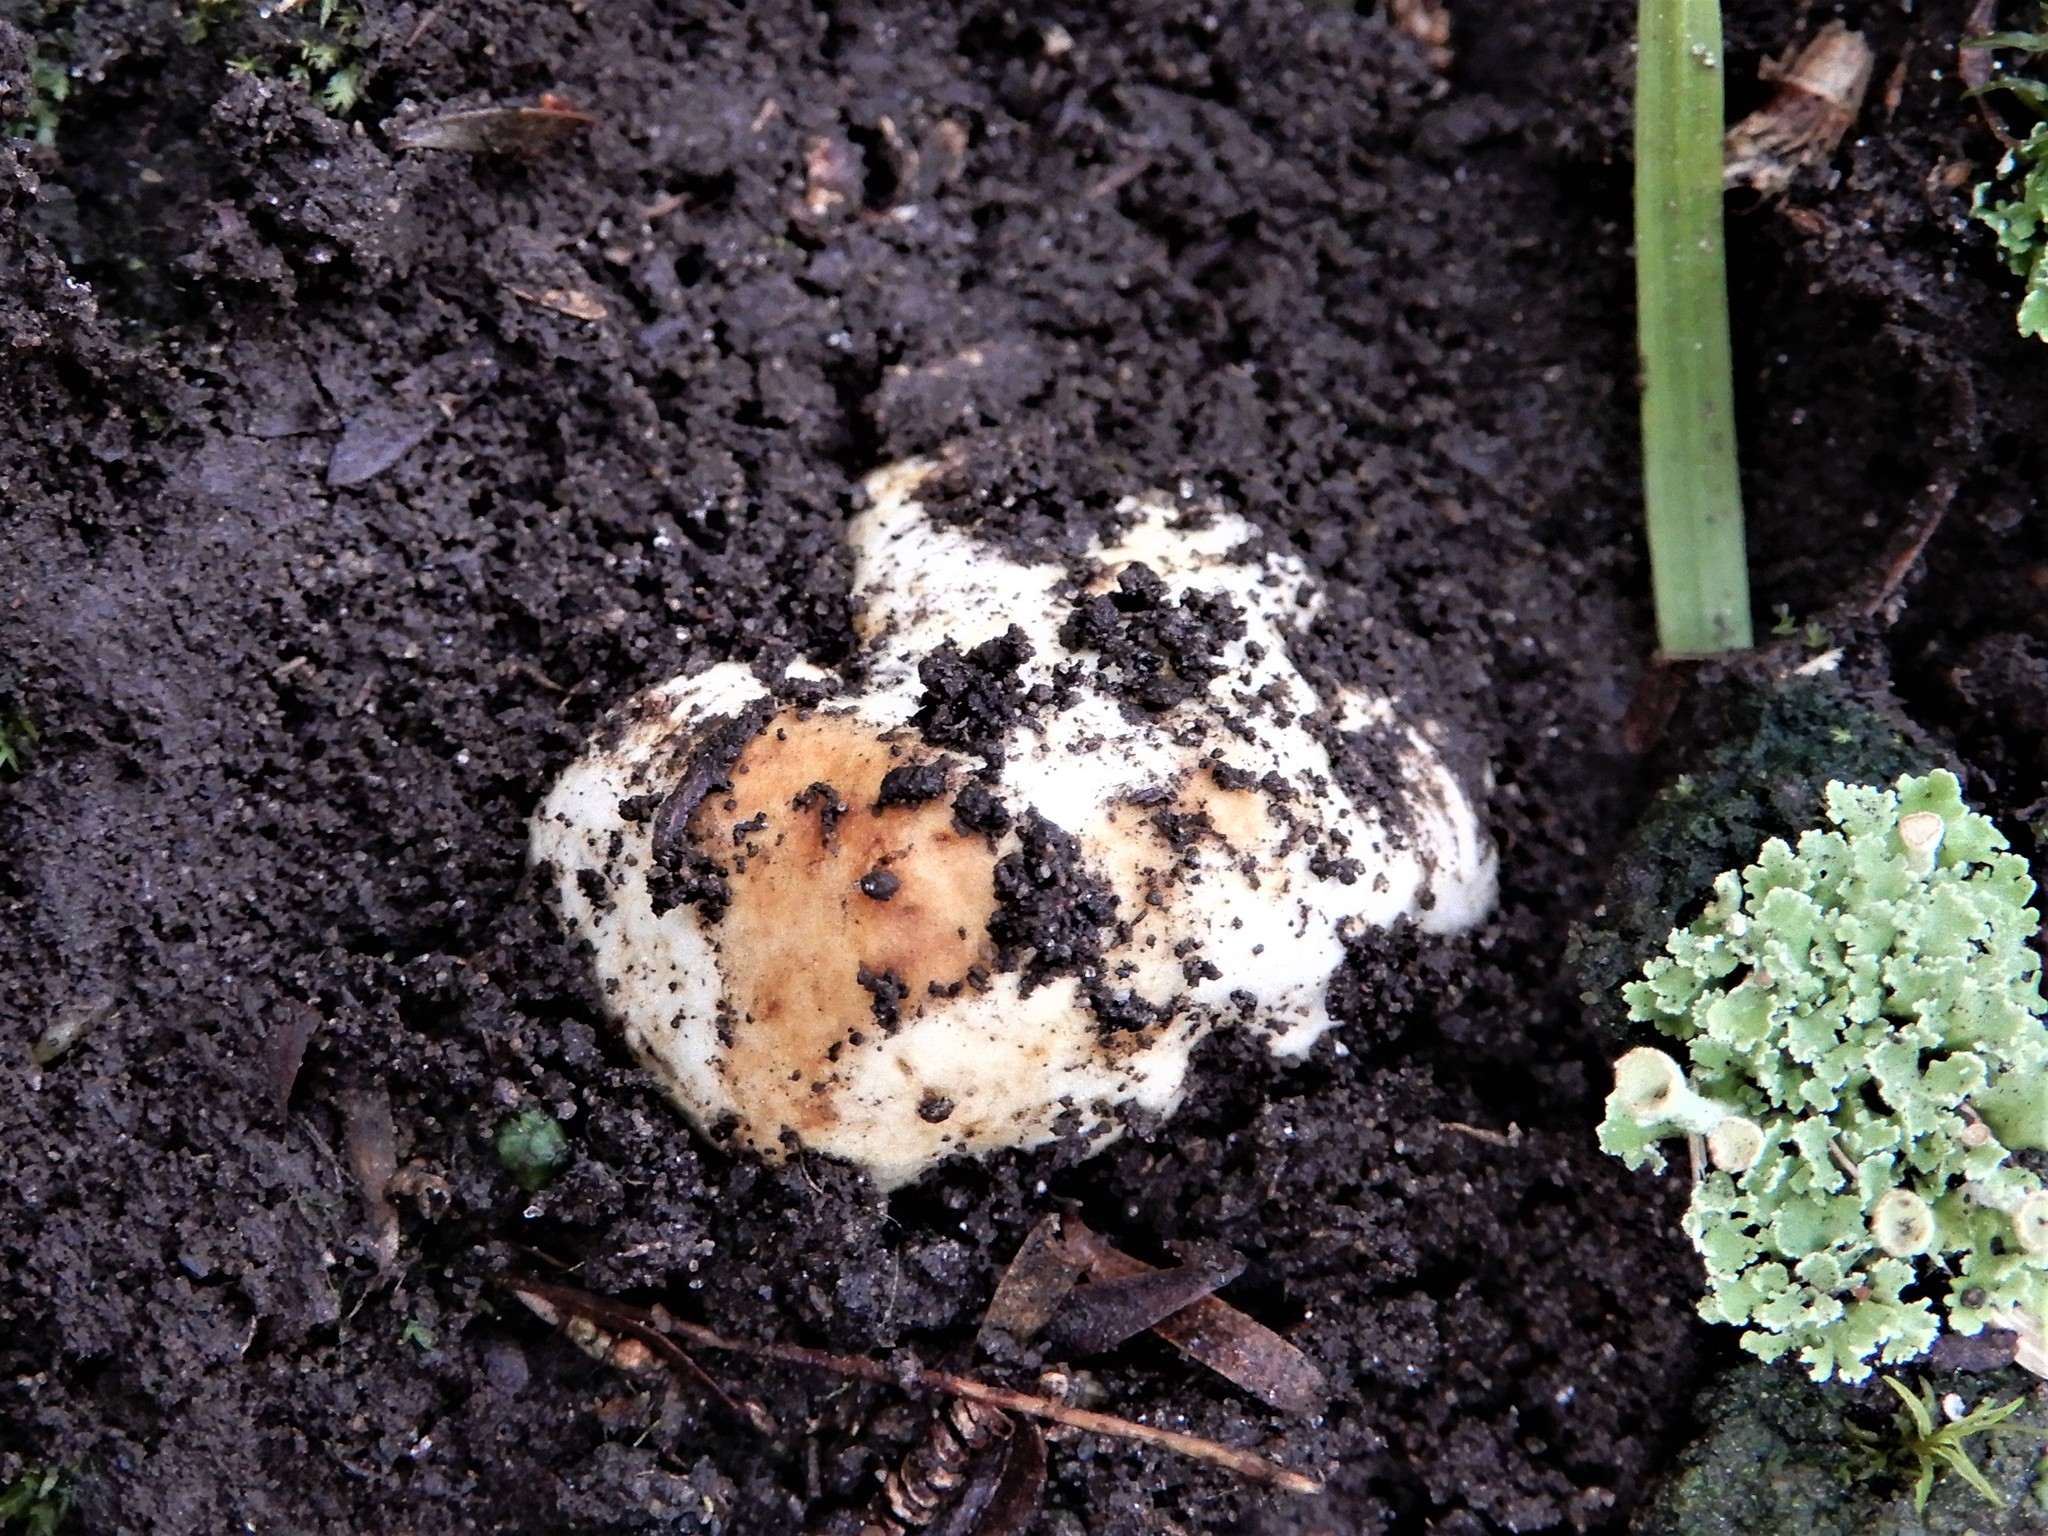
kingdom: Fungi
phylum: Basidiomycota
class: Agaricomycetes
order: Agaricales
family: Bolbitiaceae
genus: Descomyces
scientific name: Descomyces
